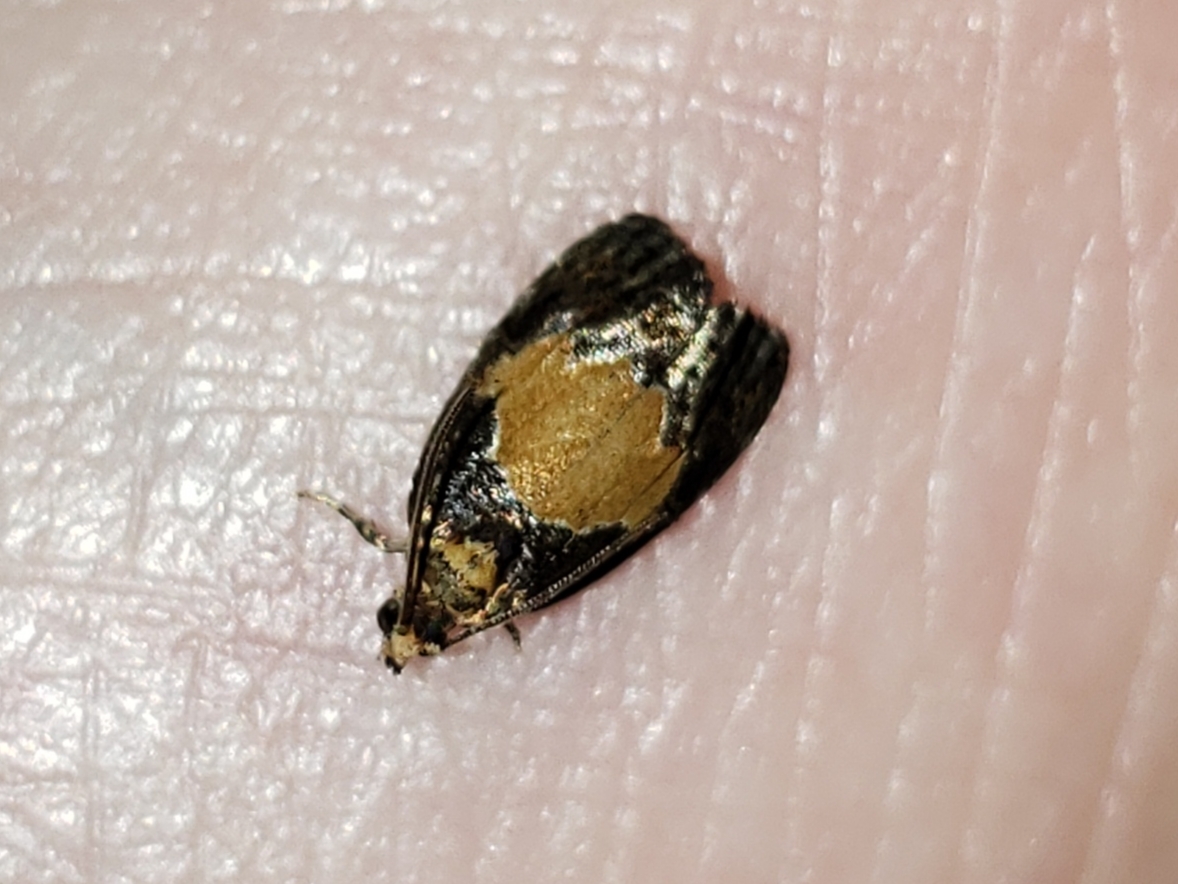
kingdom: Animalia
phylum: Arthropoda
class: Insecta
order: Lepidoptera
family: Tortricidae
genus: Olethreutes
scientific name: Olethreutes osmundana
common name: Fern olethreutes moth
